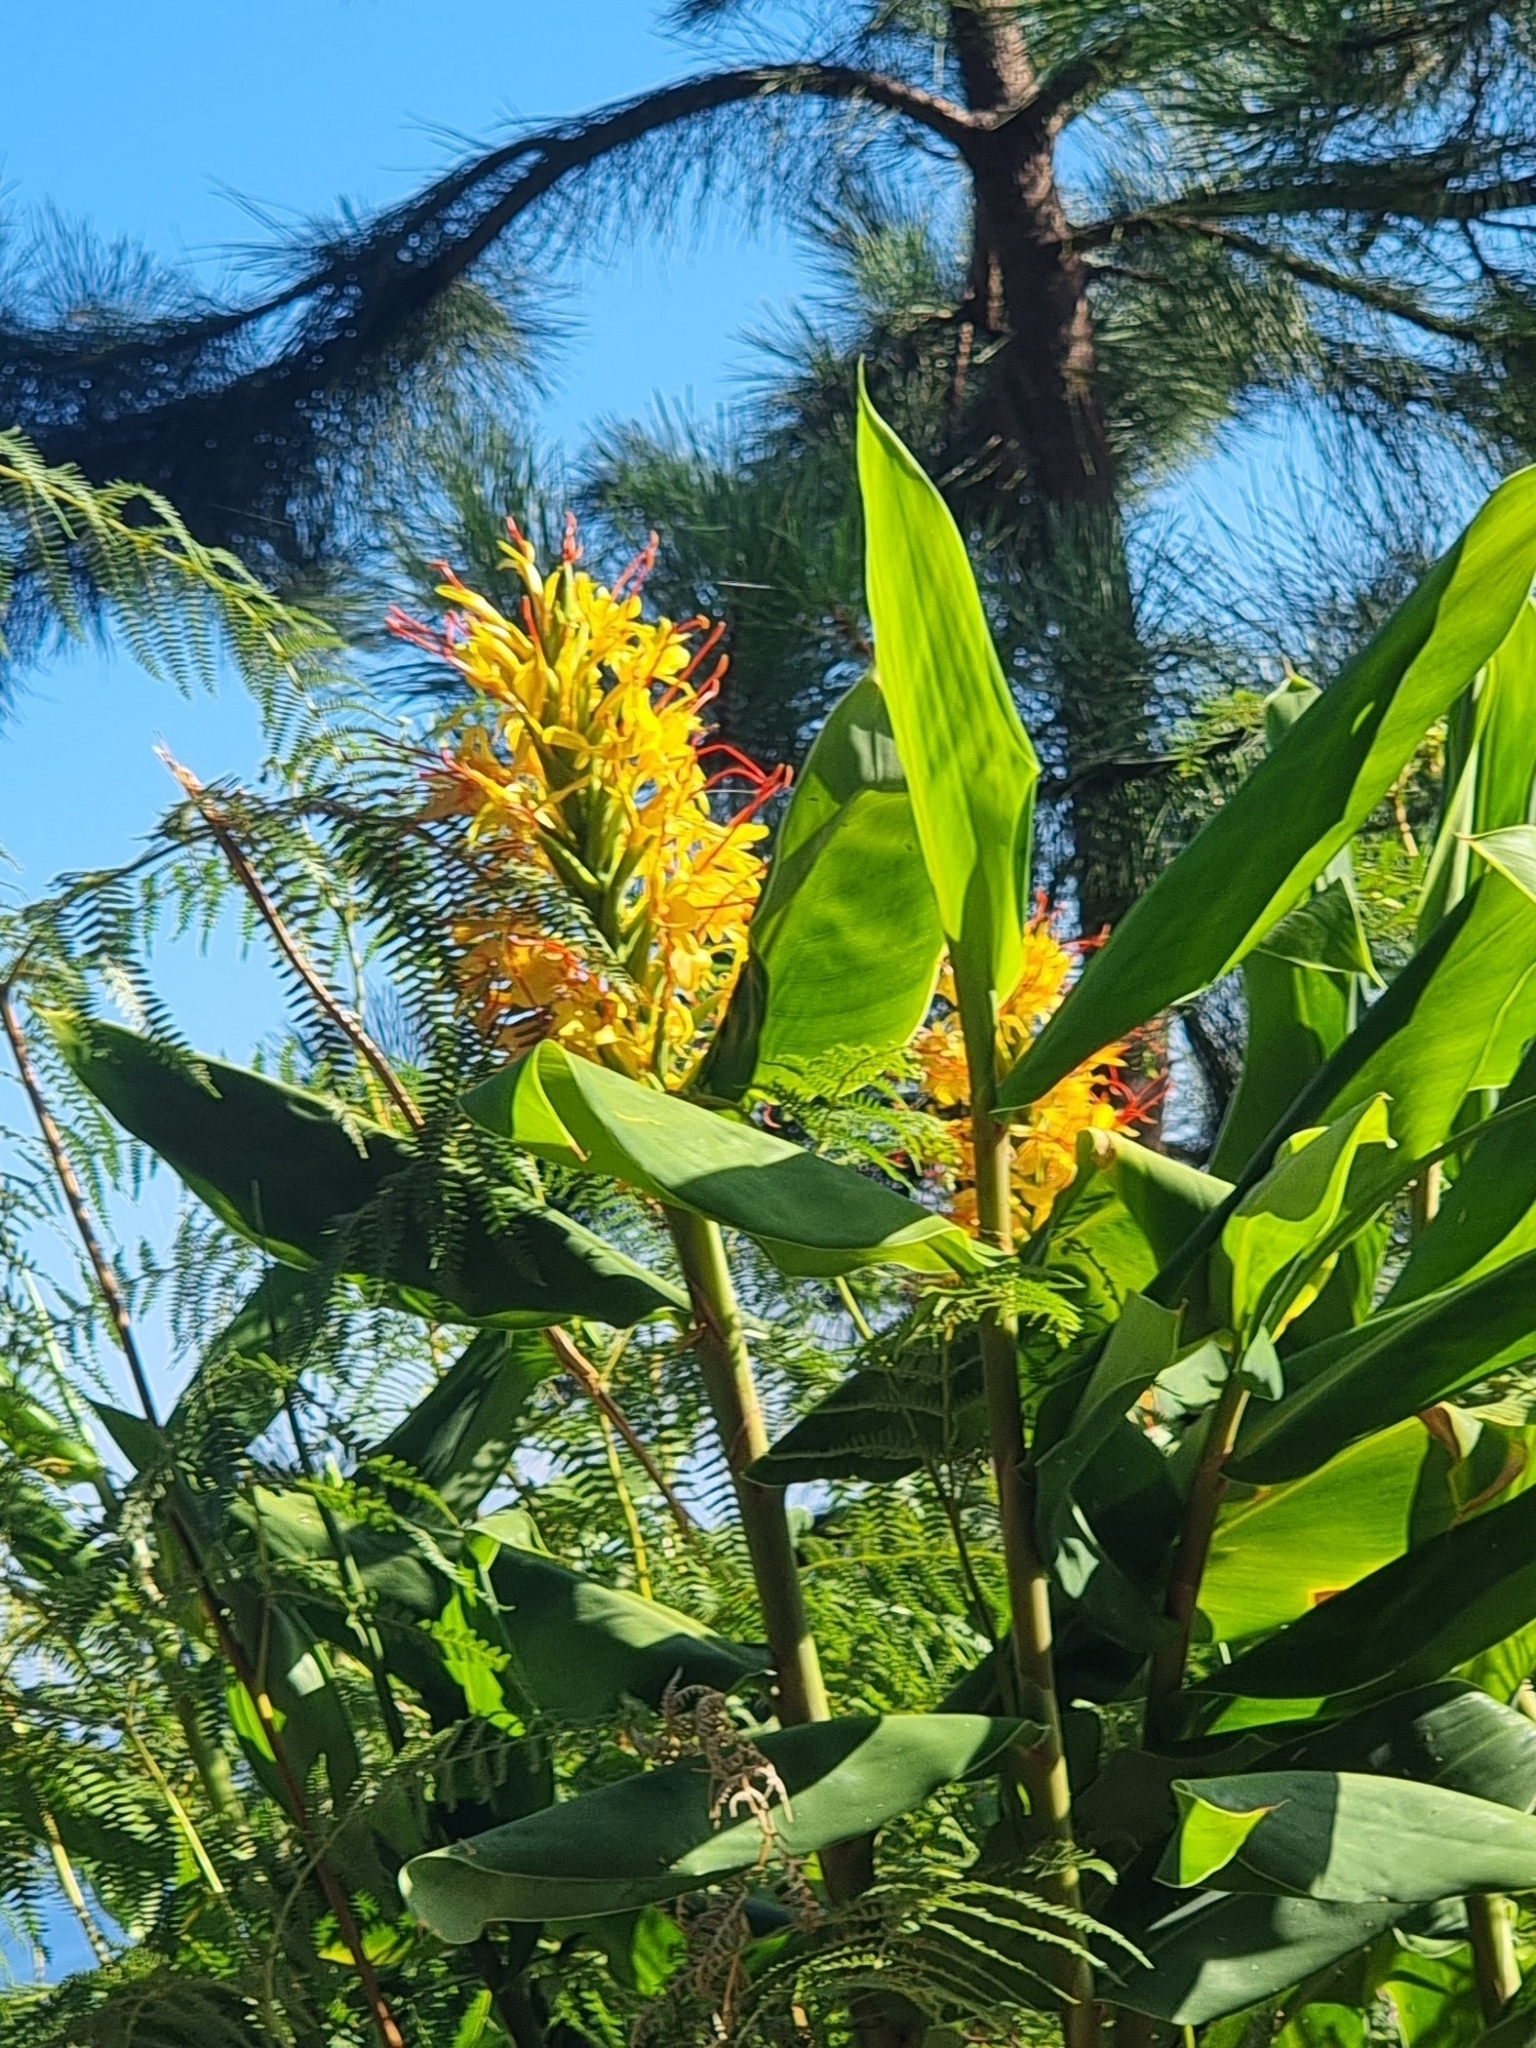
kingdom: Plantae
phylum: Tracheophyta
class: Liliopsida
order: Zingiberales
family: Zingiberaceae
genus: Hedychium
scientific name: Hedychium gardnerianum
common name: Himalayan ginger
